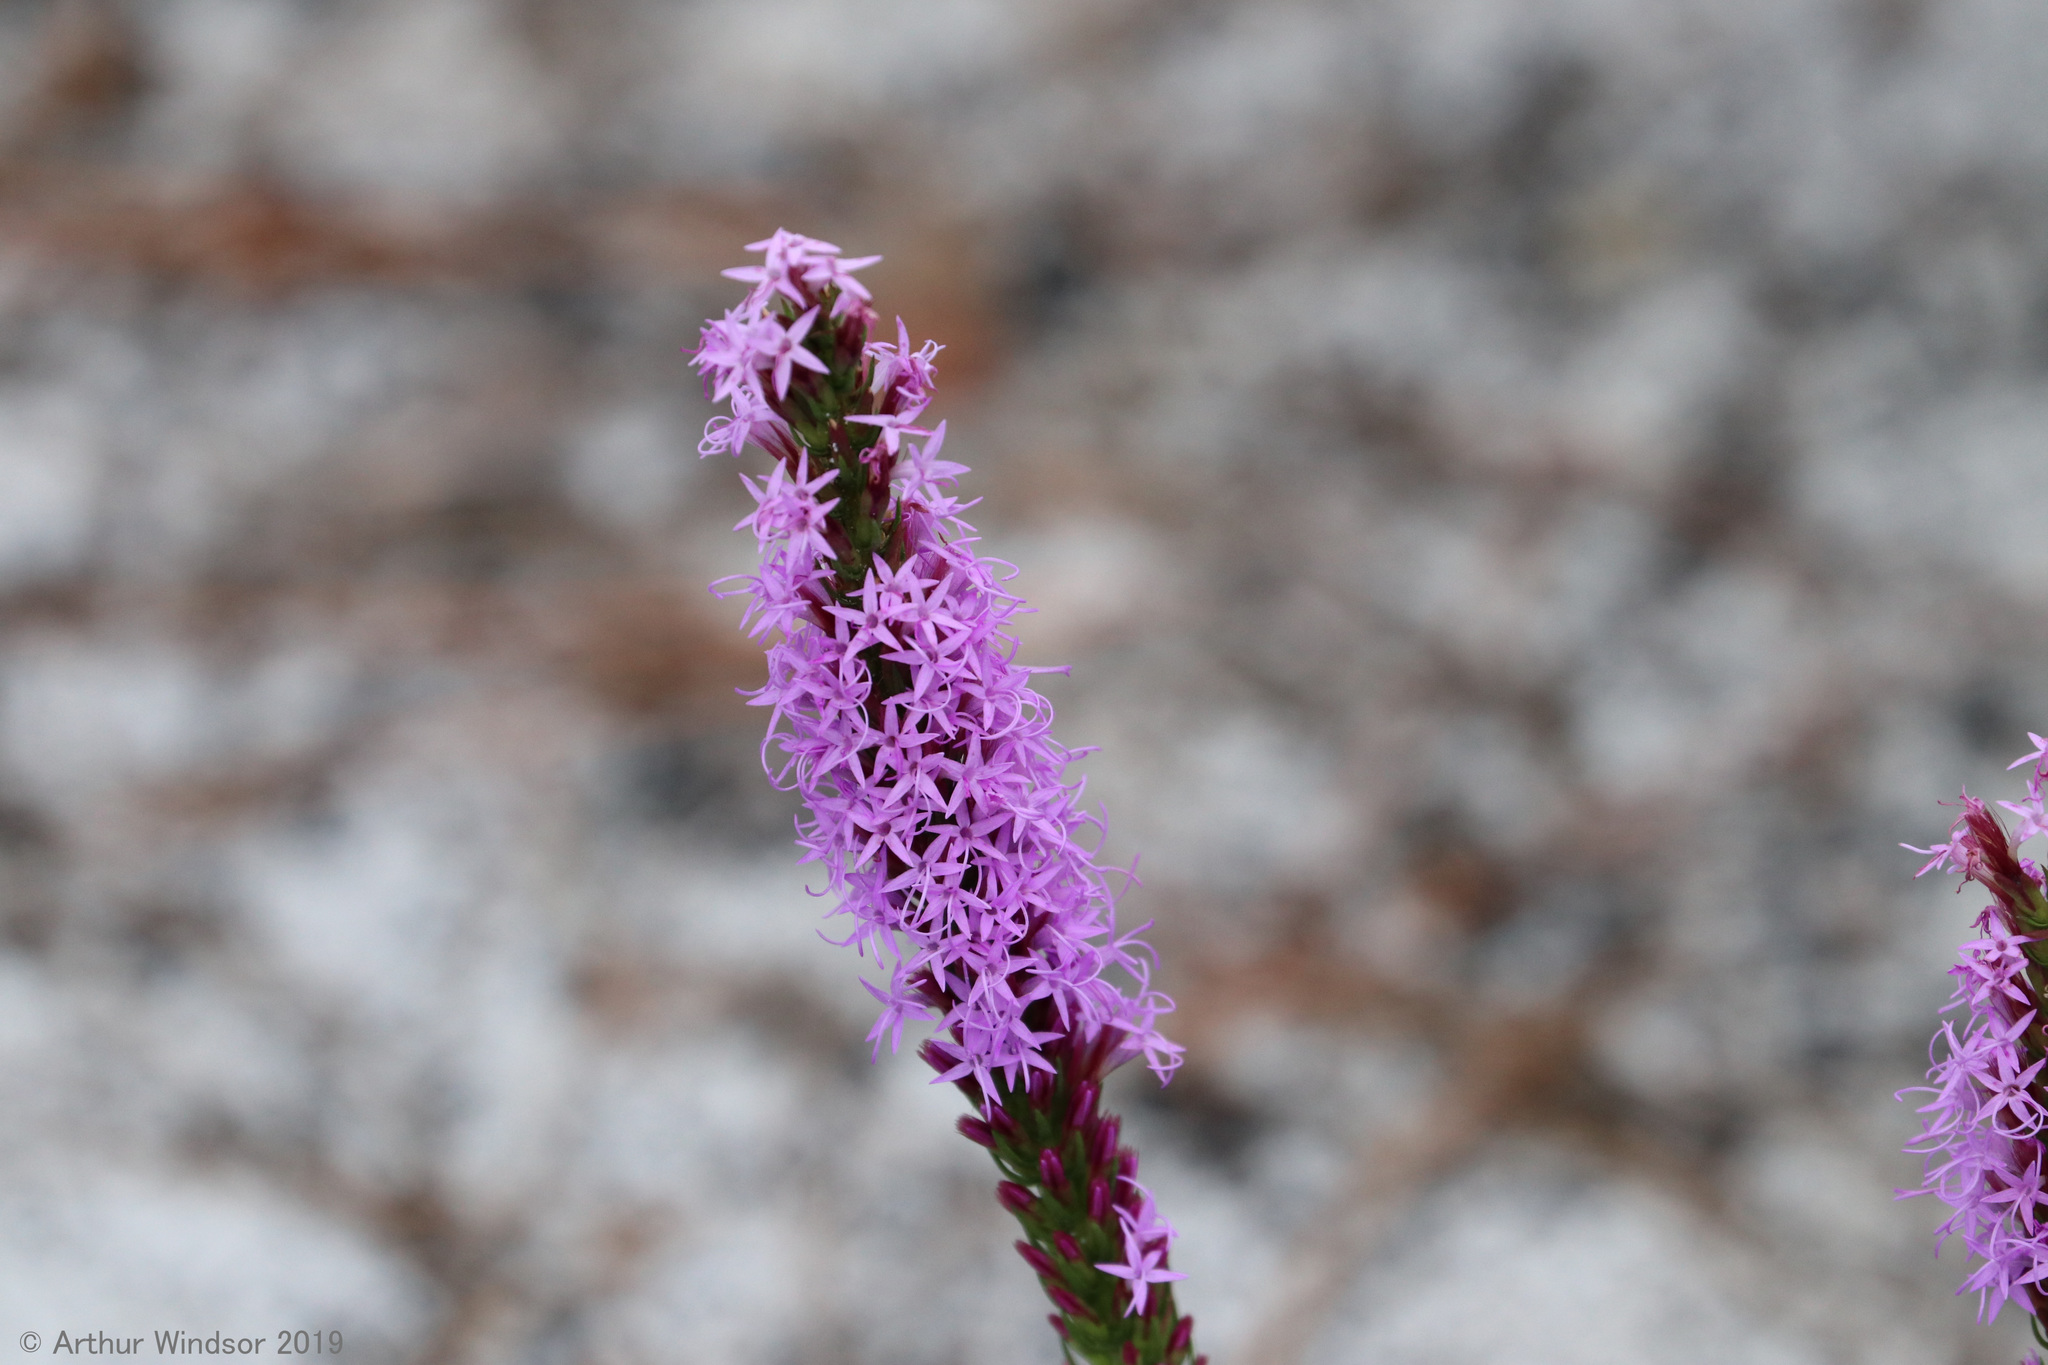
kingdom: Plantae
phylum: Tracheophyta
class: Magnoliopsida
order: Asterales
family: Asteraceae
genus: Liatris
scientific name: Liatris chapmanii
